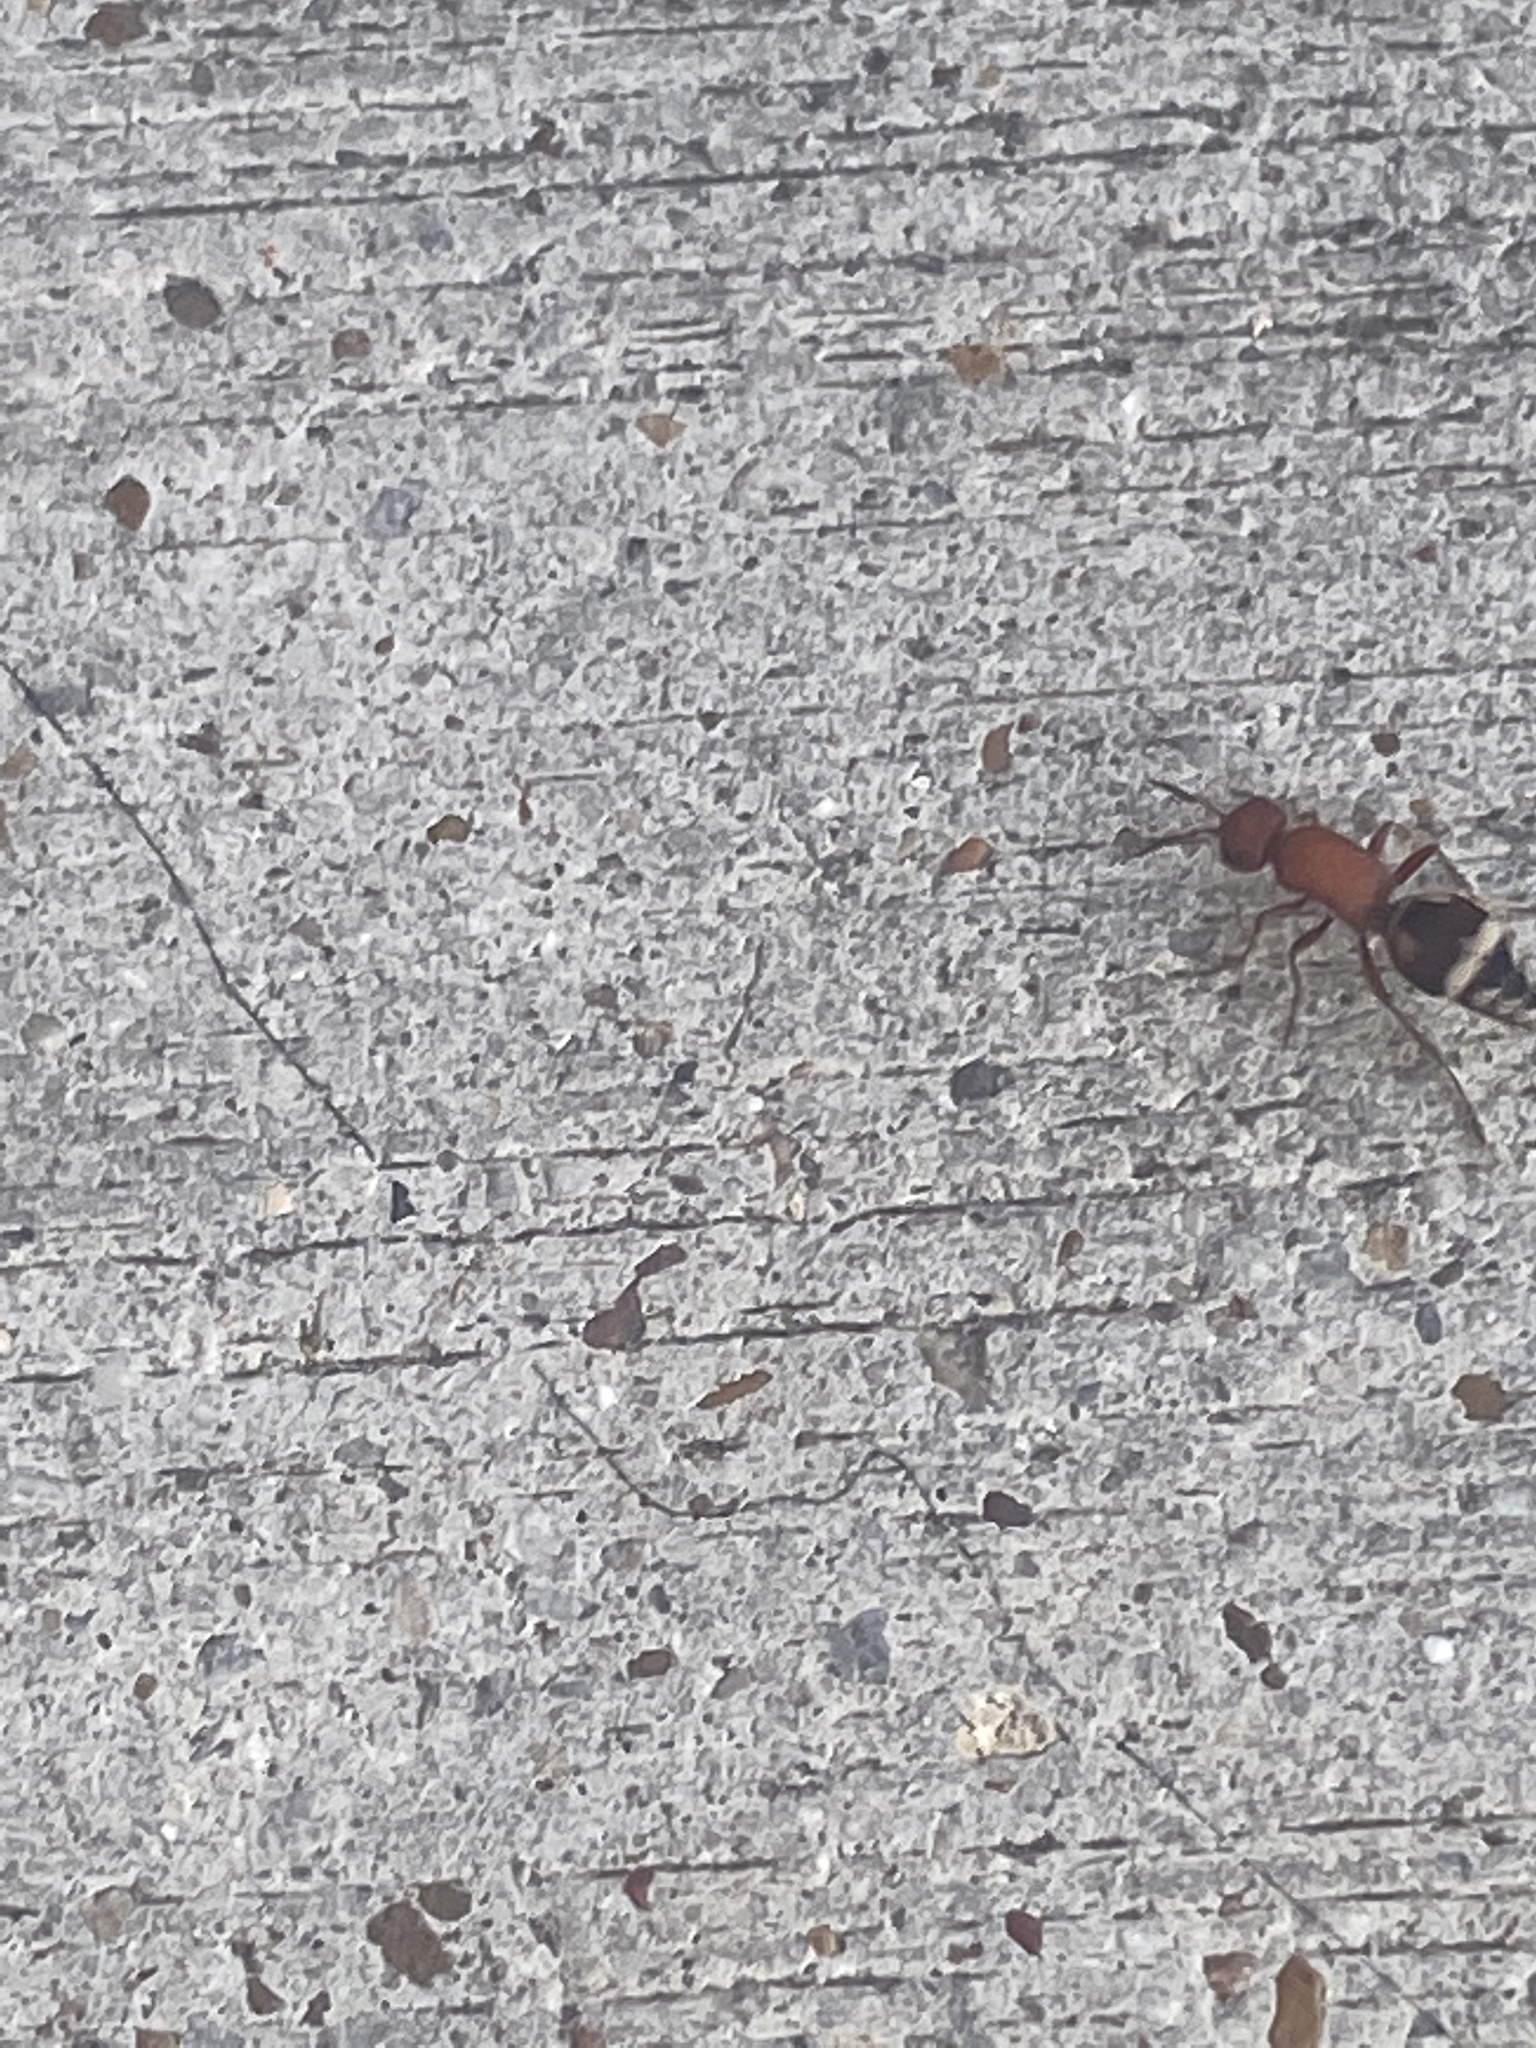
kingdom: Animalia
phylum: Arthropoda
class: Insecta
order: Hymenoptera
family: Mutillidae
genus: Timulla
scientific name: Timulla
